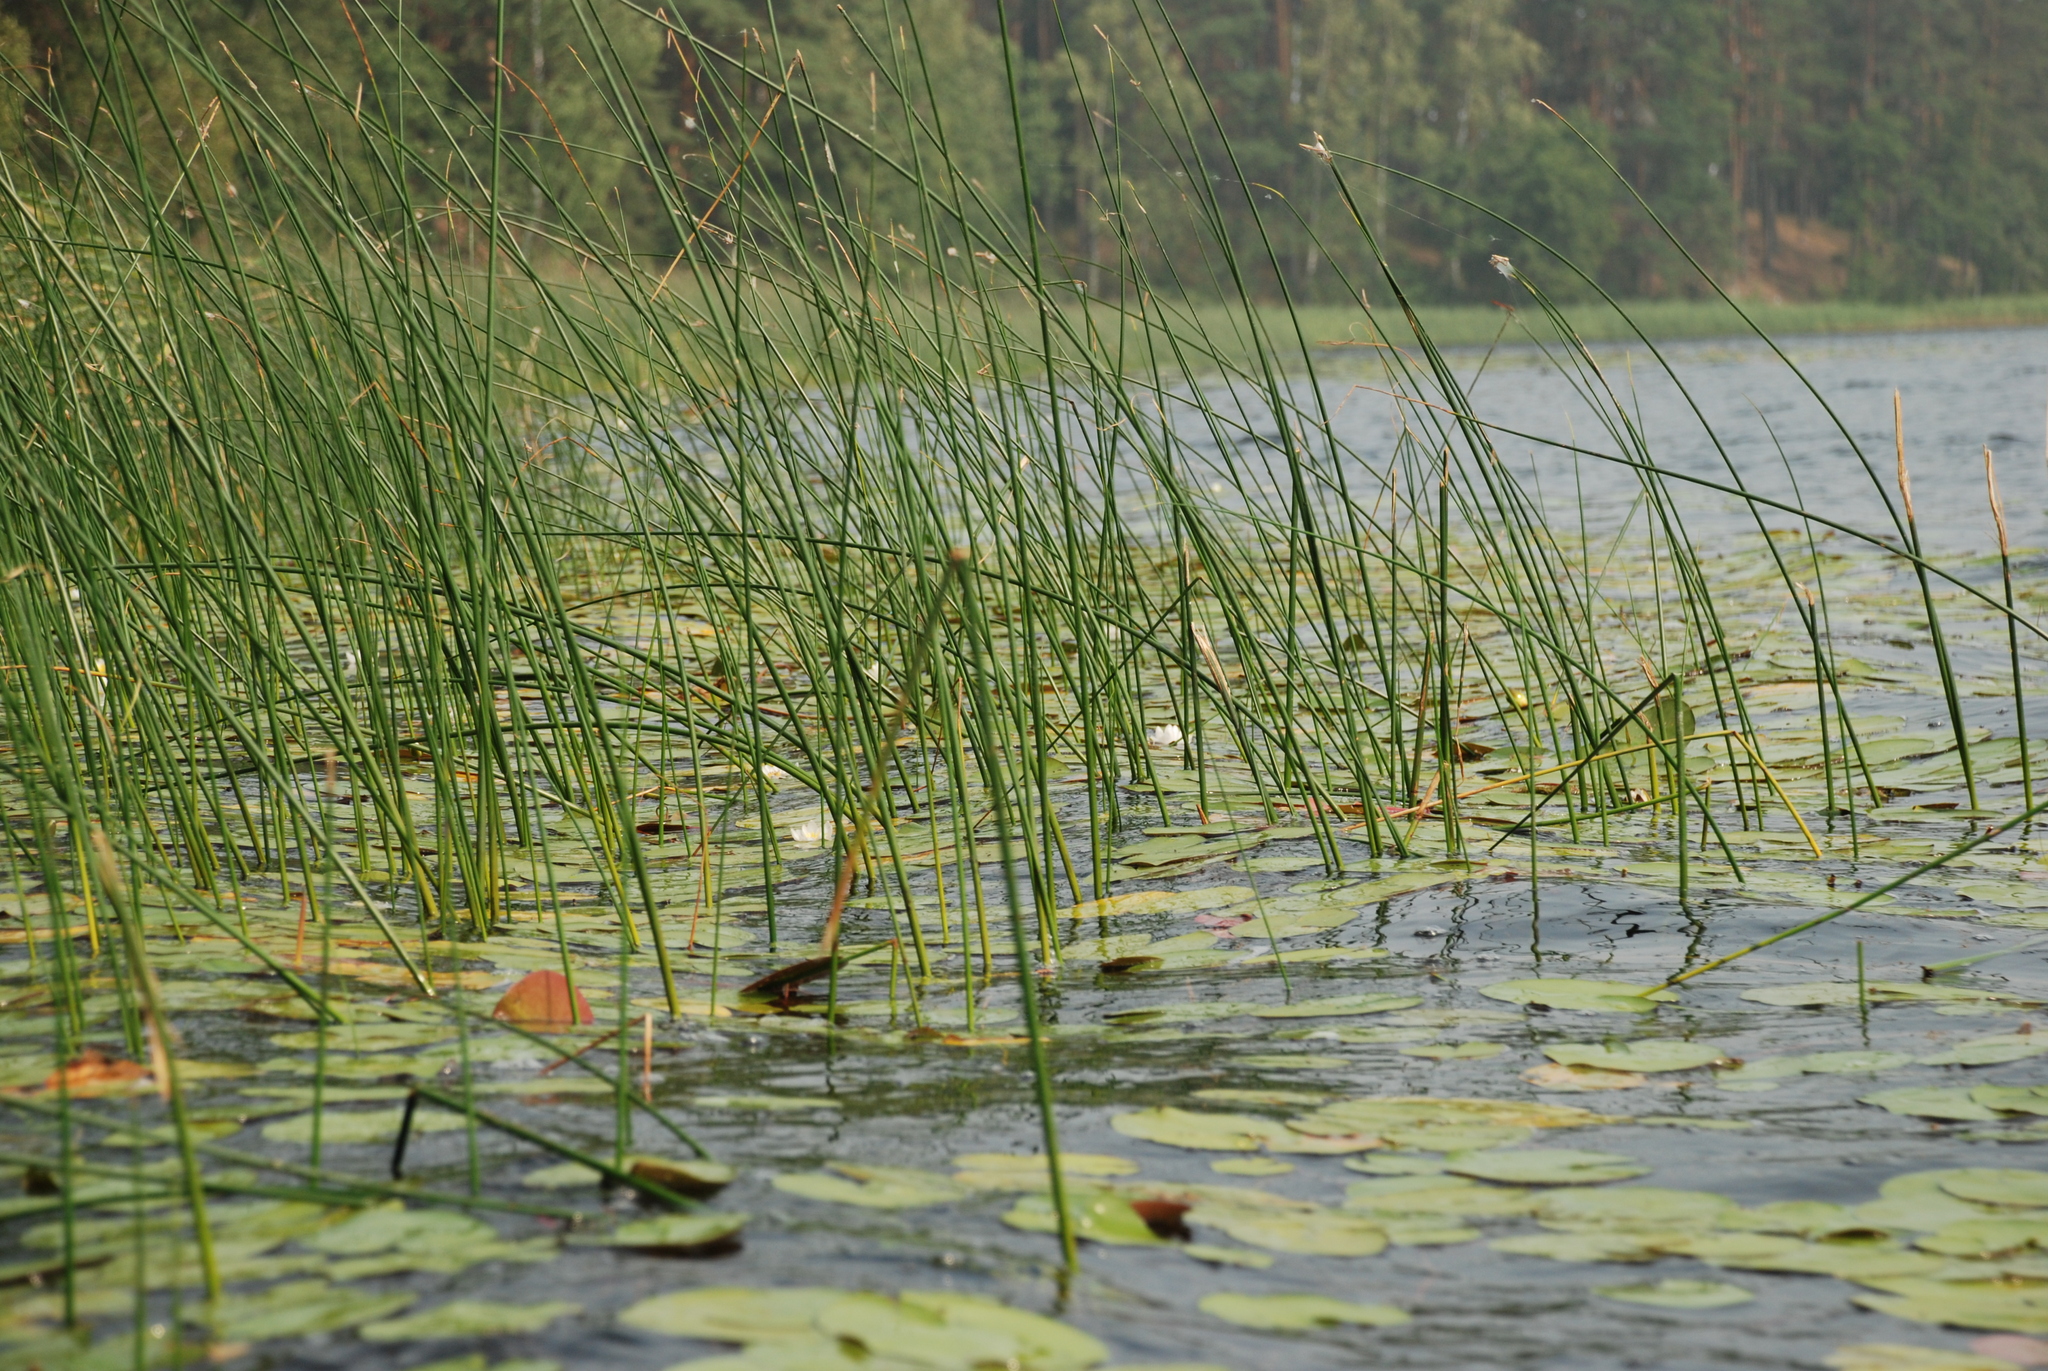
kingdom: Plantae
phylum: Tracheophyta
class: Liliopsida
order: Poales
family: Cyperaceae
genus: Schoenoplectus
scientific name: Schoenoplectus lacustris
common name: Common club-rush
